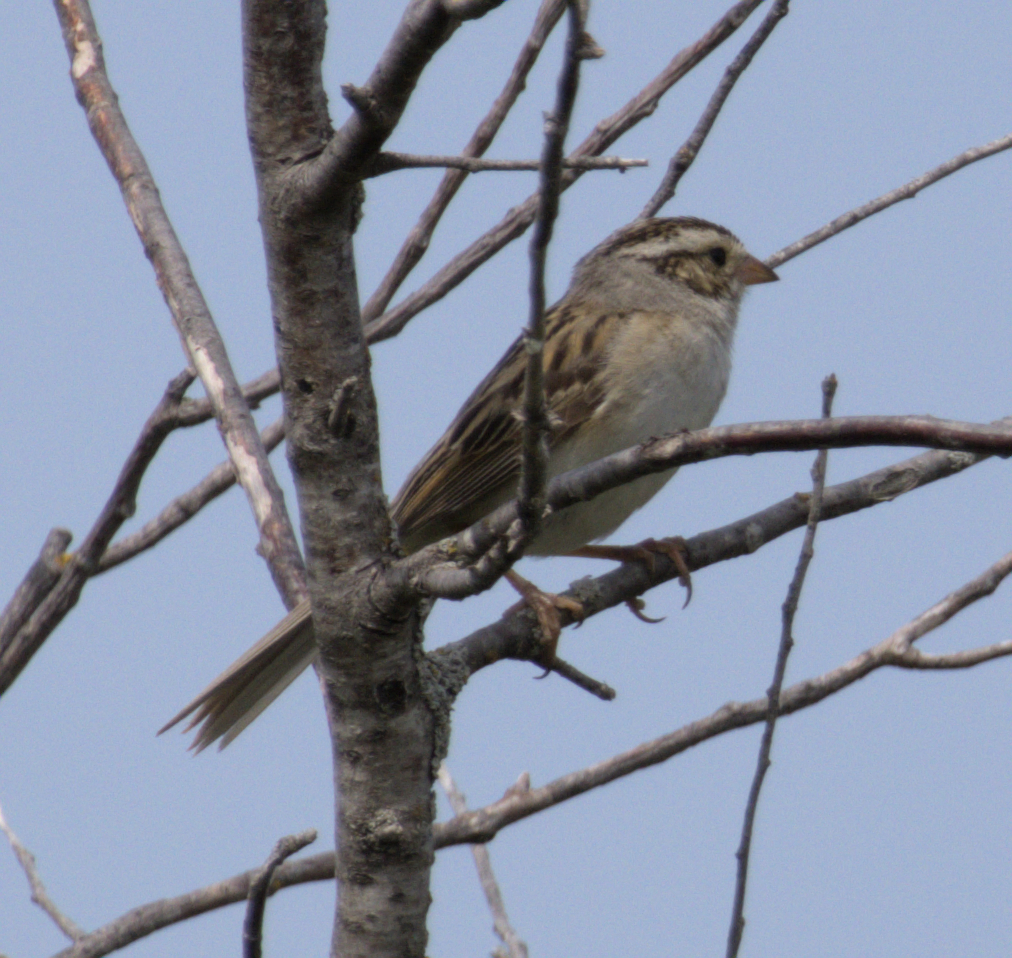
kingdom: Animalia
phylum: Chordata
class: Aves
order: Passeriformes
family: Passerellidae
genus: Spizella
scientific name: Spizella pallida
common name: Clay-colored sparrow
